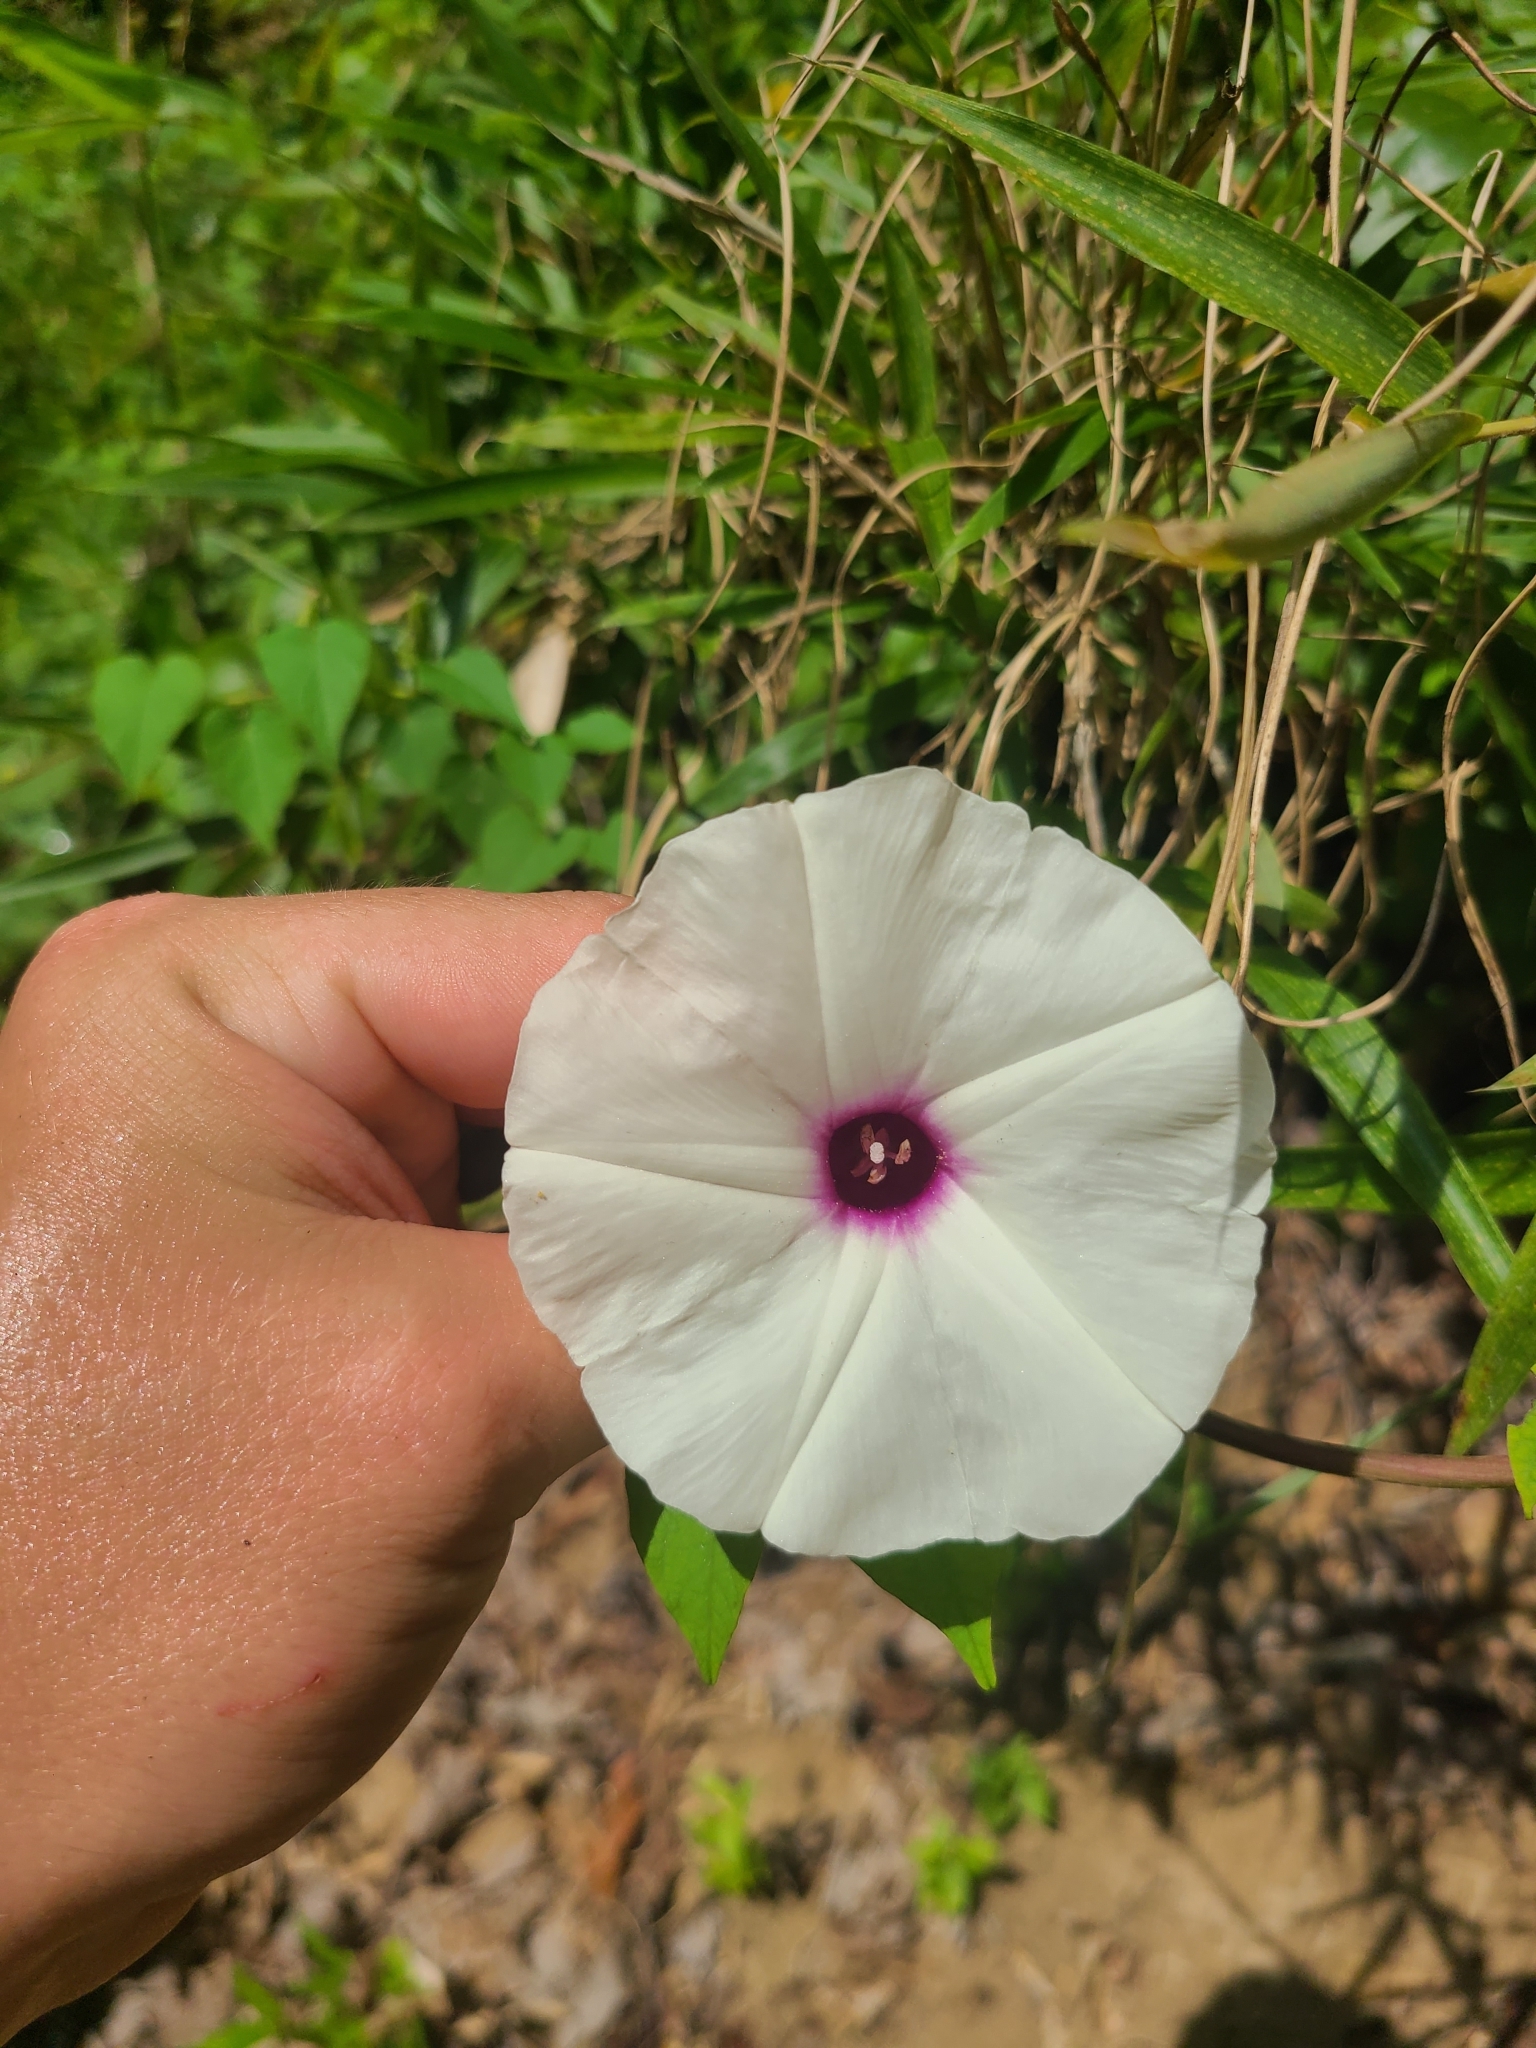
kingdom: Plantae
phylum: Tracheophyta
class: Magnoliopsida
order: Solanales
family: Convolvulaceae
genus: Ipomoea
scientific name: Ipomoea pandurata
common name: Man-of-the-earth
